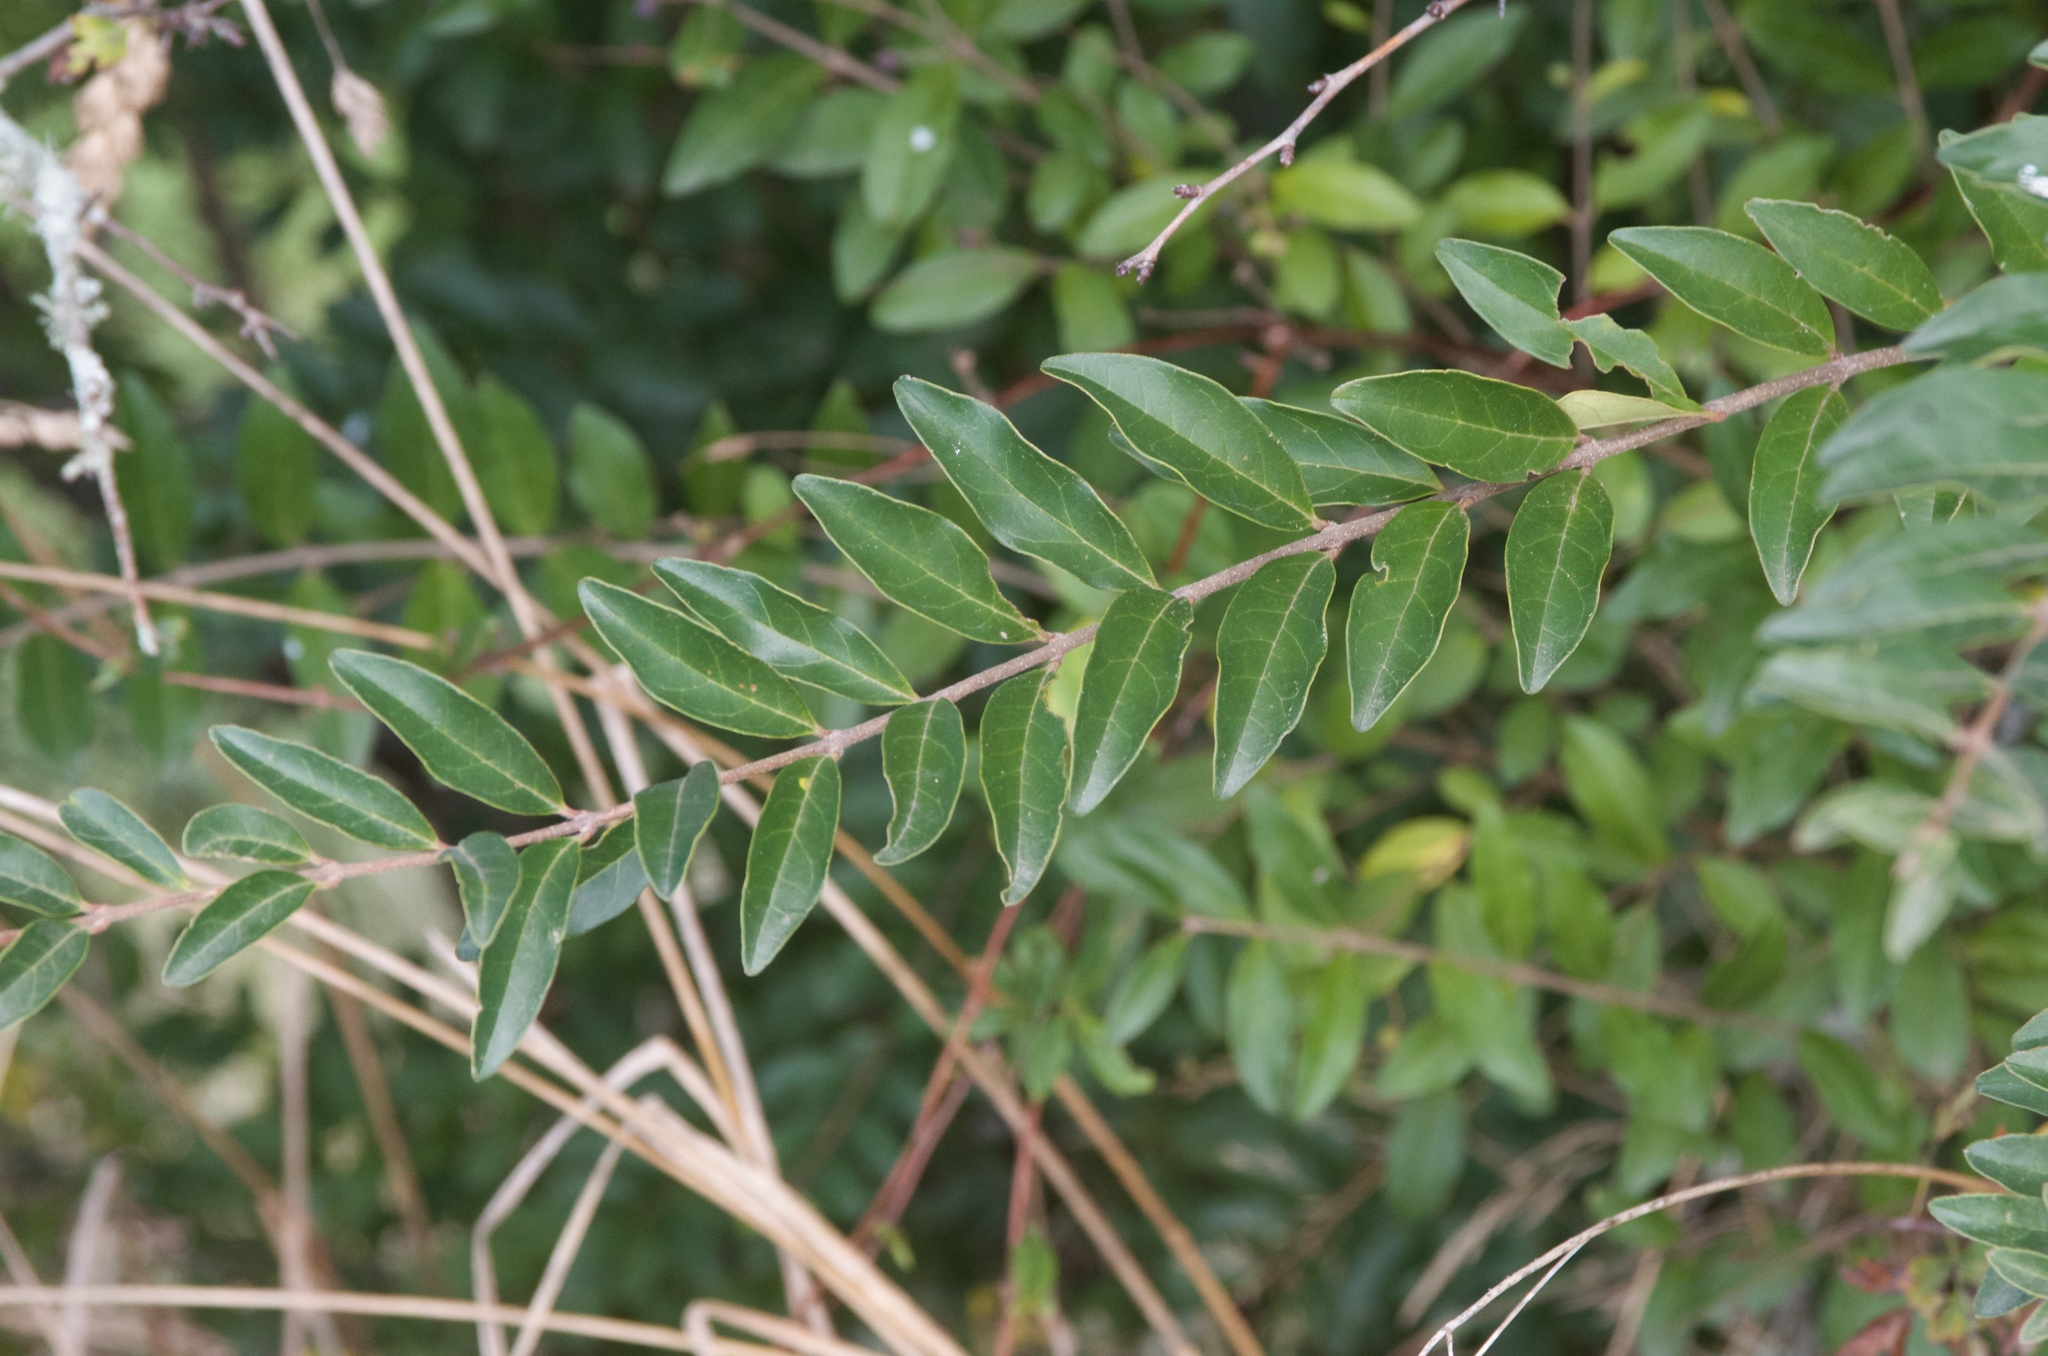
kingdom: Plantae
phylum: Tracheophyta
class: Magnoliopsida
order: Lamiales
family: Oleaceae
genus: Ligustrum
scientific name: Ligustrum sinense
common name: Chinese privet
